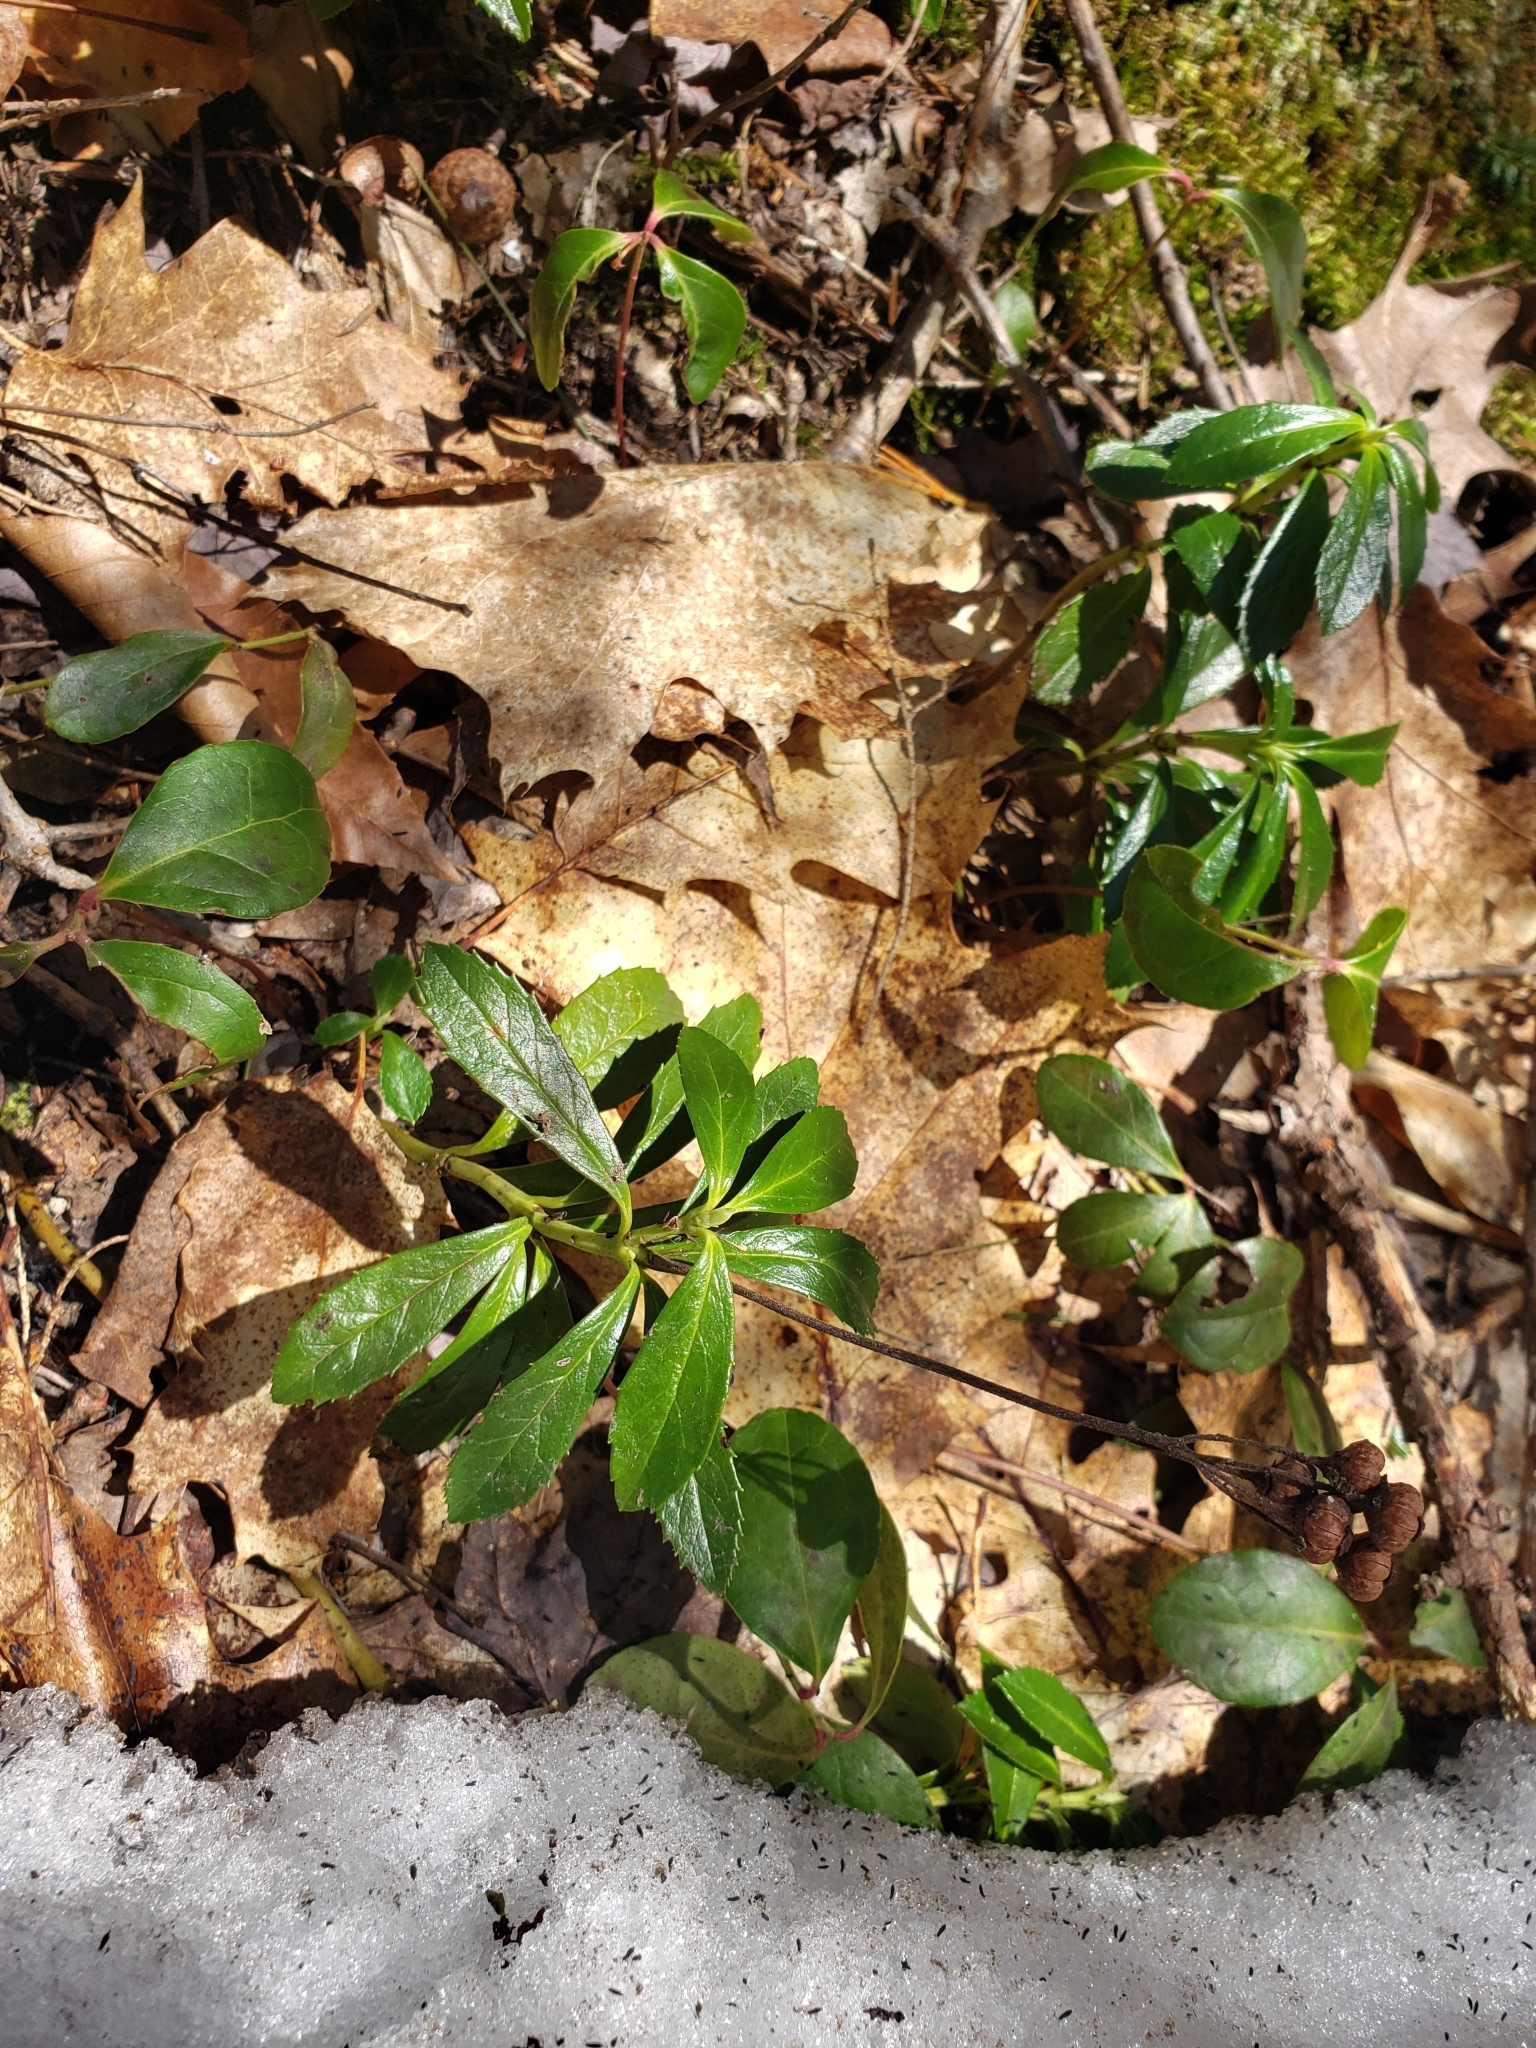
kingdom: Plantae
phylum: Tracheophyta
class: Magnoliopsida
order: Ericales
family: Ericaceae
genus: Chimaphila
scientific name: Chimaphila umbellata
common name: Pipsissewa
